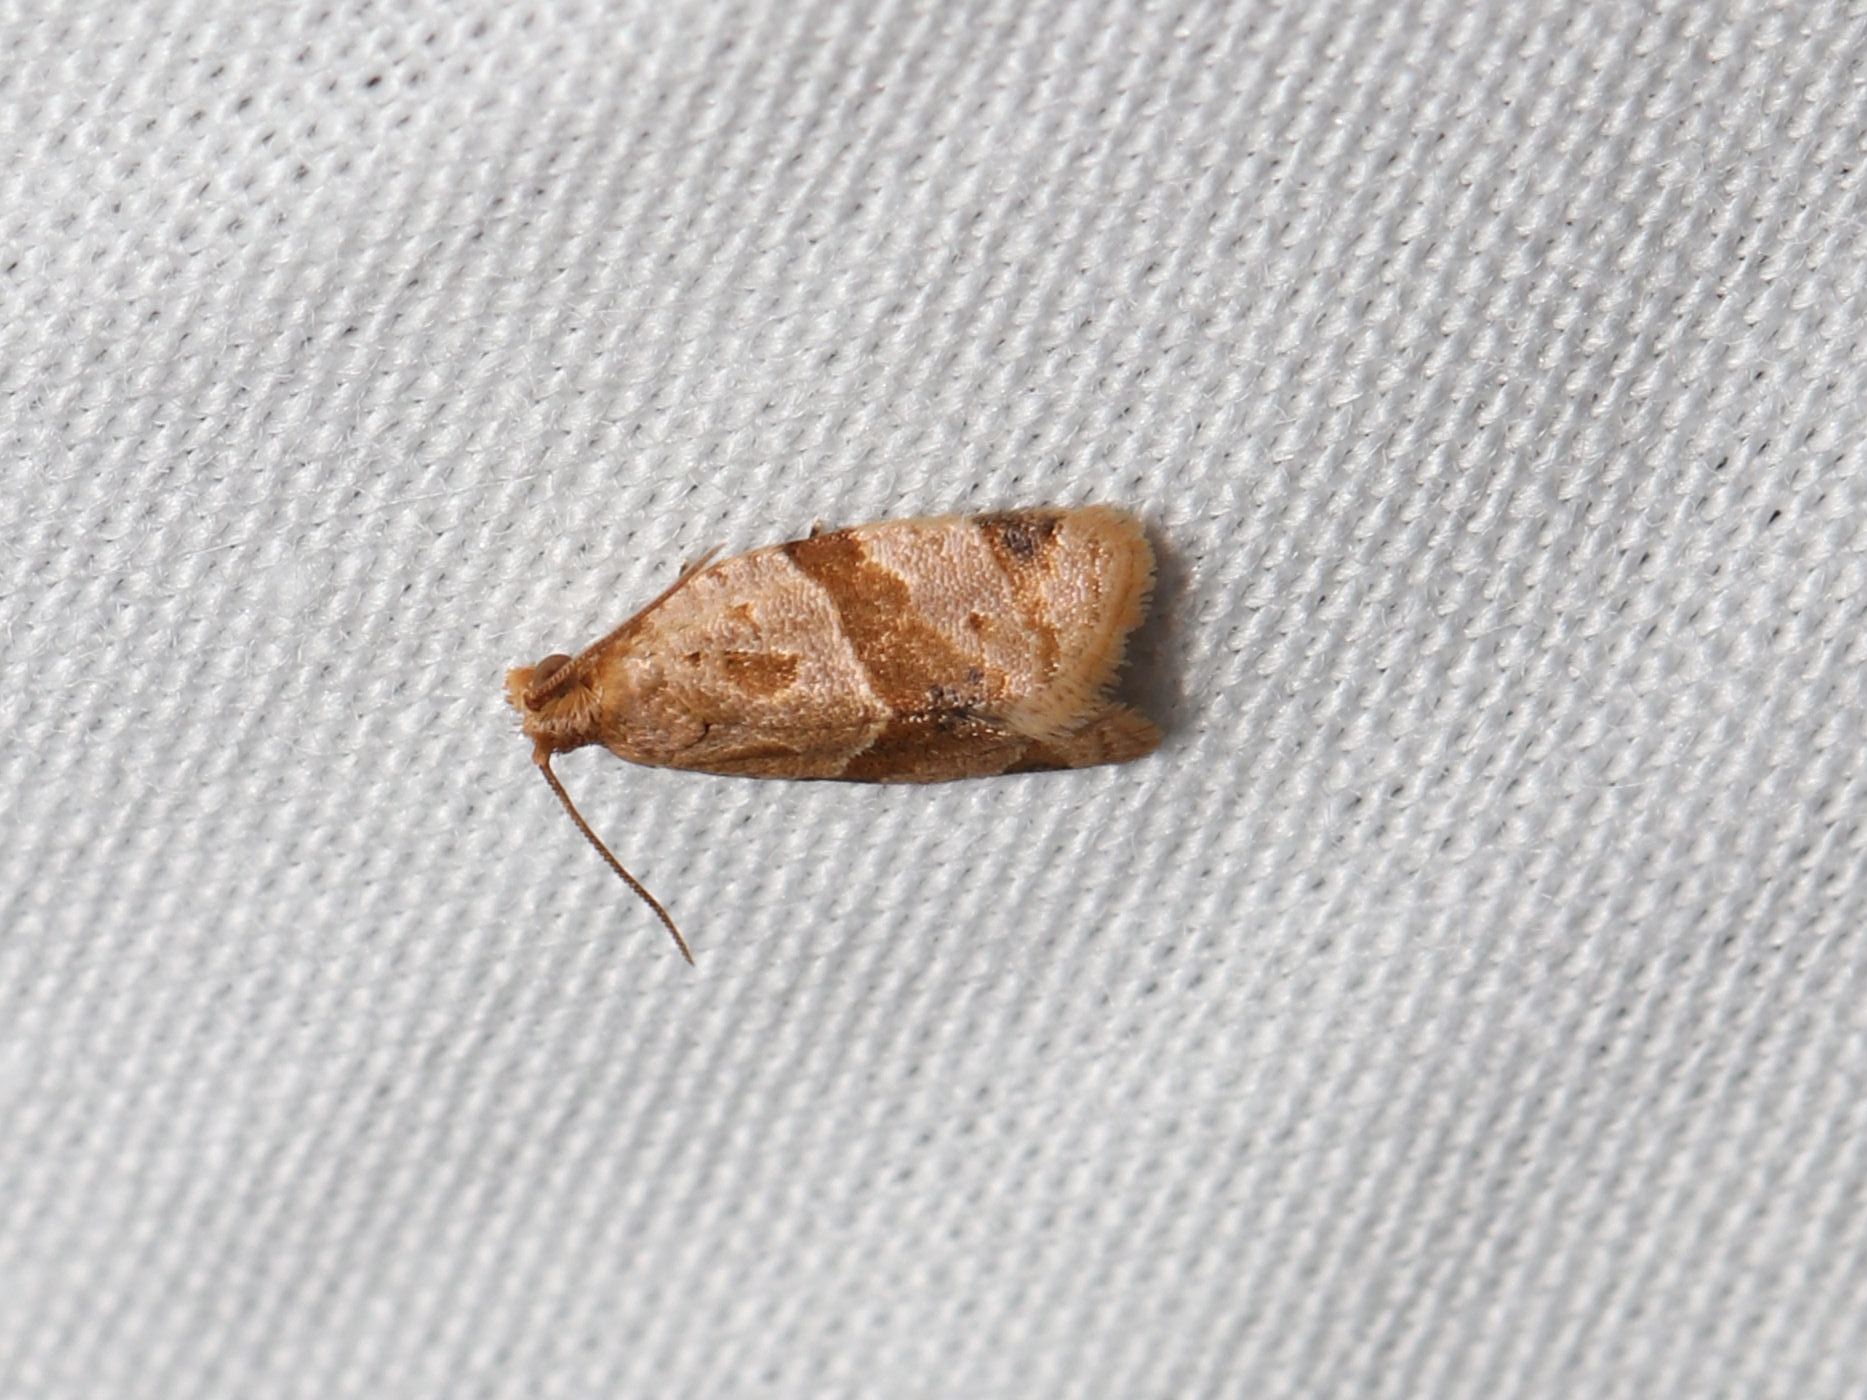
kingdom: Animalia
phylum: Arthropoda
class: Insecta
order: Lepidoptera
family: Tortricidae
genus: Clepsis
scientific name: Clepsis peritana
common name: Garden tortrix
